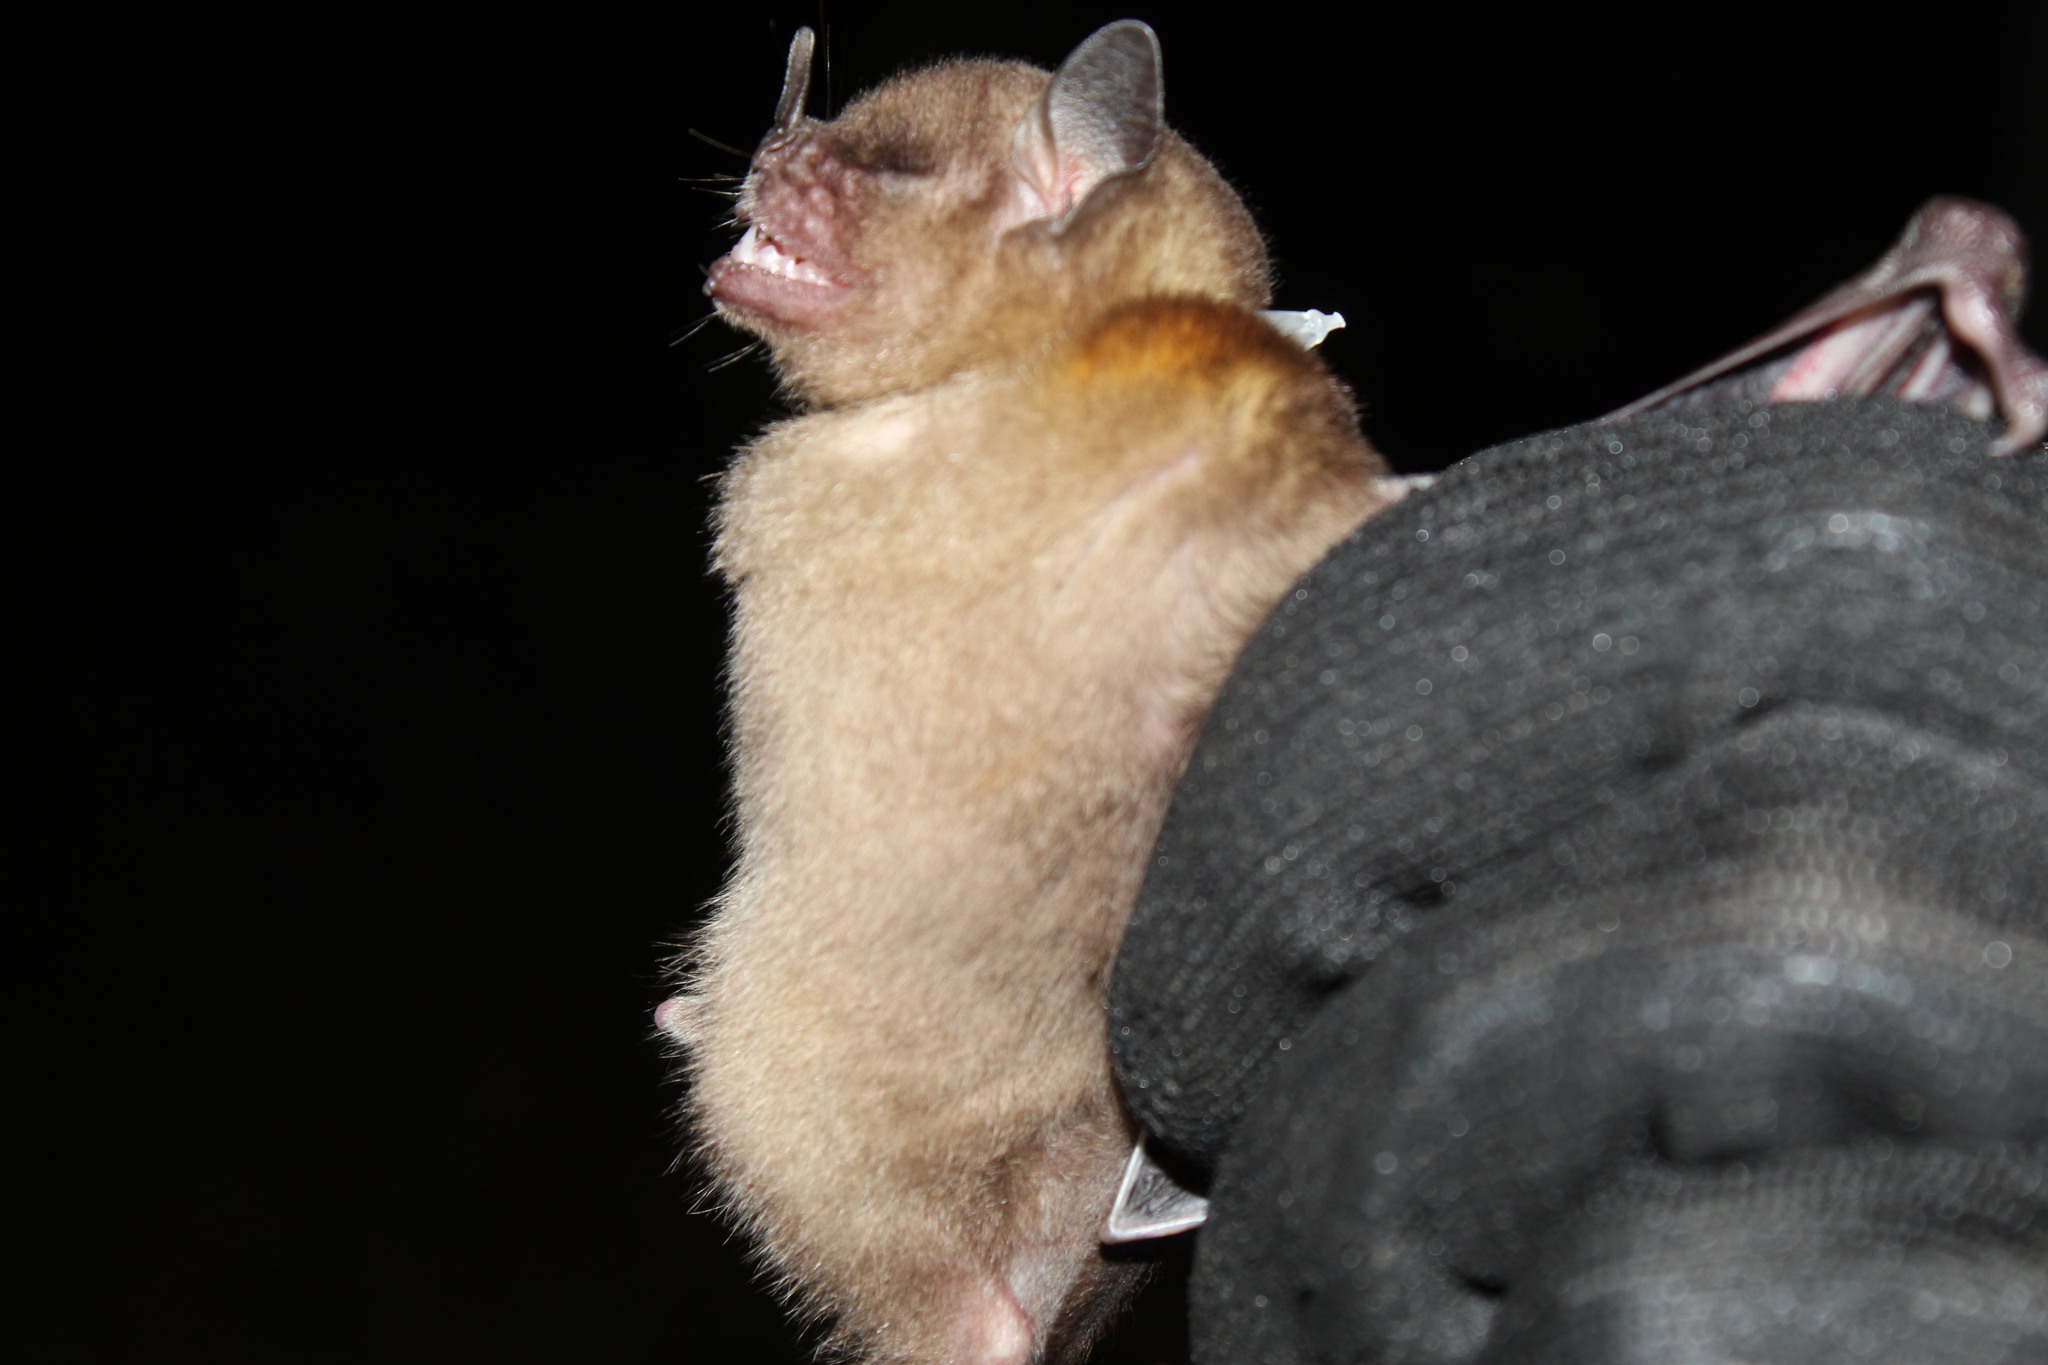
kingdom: Animalia
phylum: Chordata
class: Mammalia
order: Chiroptera
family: Phyllostomidae
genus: Sturnira
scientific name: Sturnira lilium
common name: Little yellow-shouldered bat
